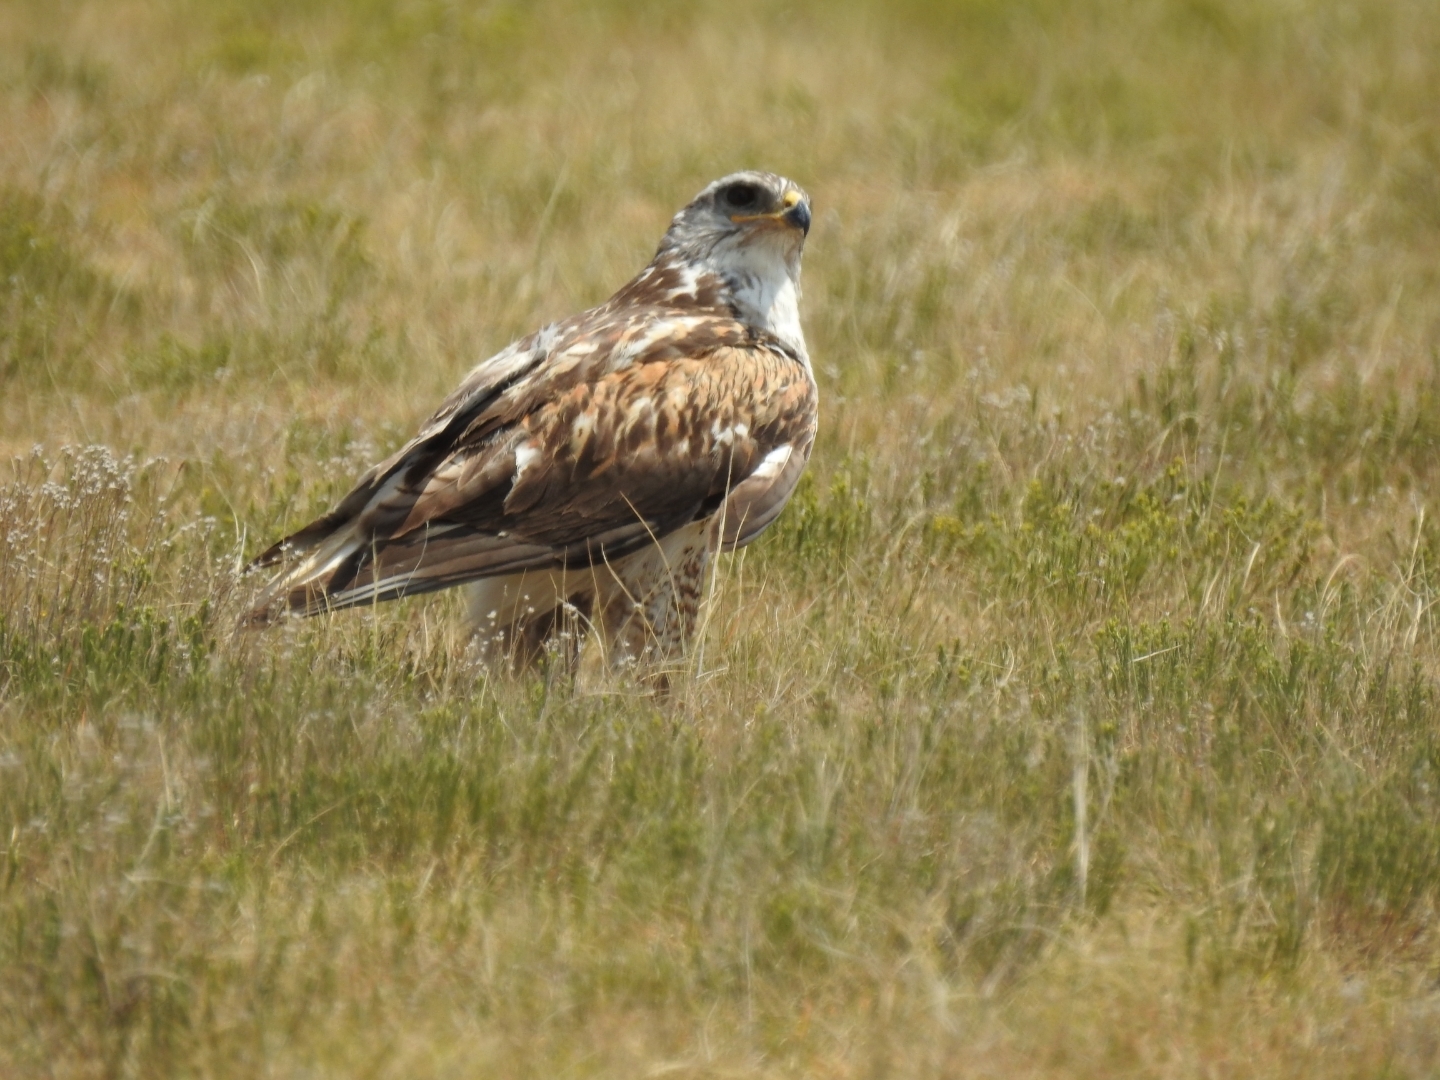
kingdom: Animalia
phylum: Chordata
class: Aves
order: Accipitriformes
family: Accipitridae
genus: Buteo
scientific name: Buteo regalis
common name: Ferruginous hawk
